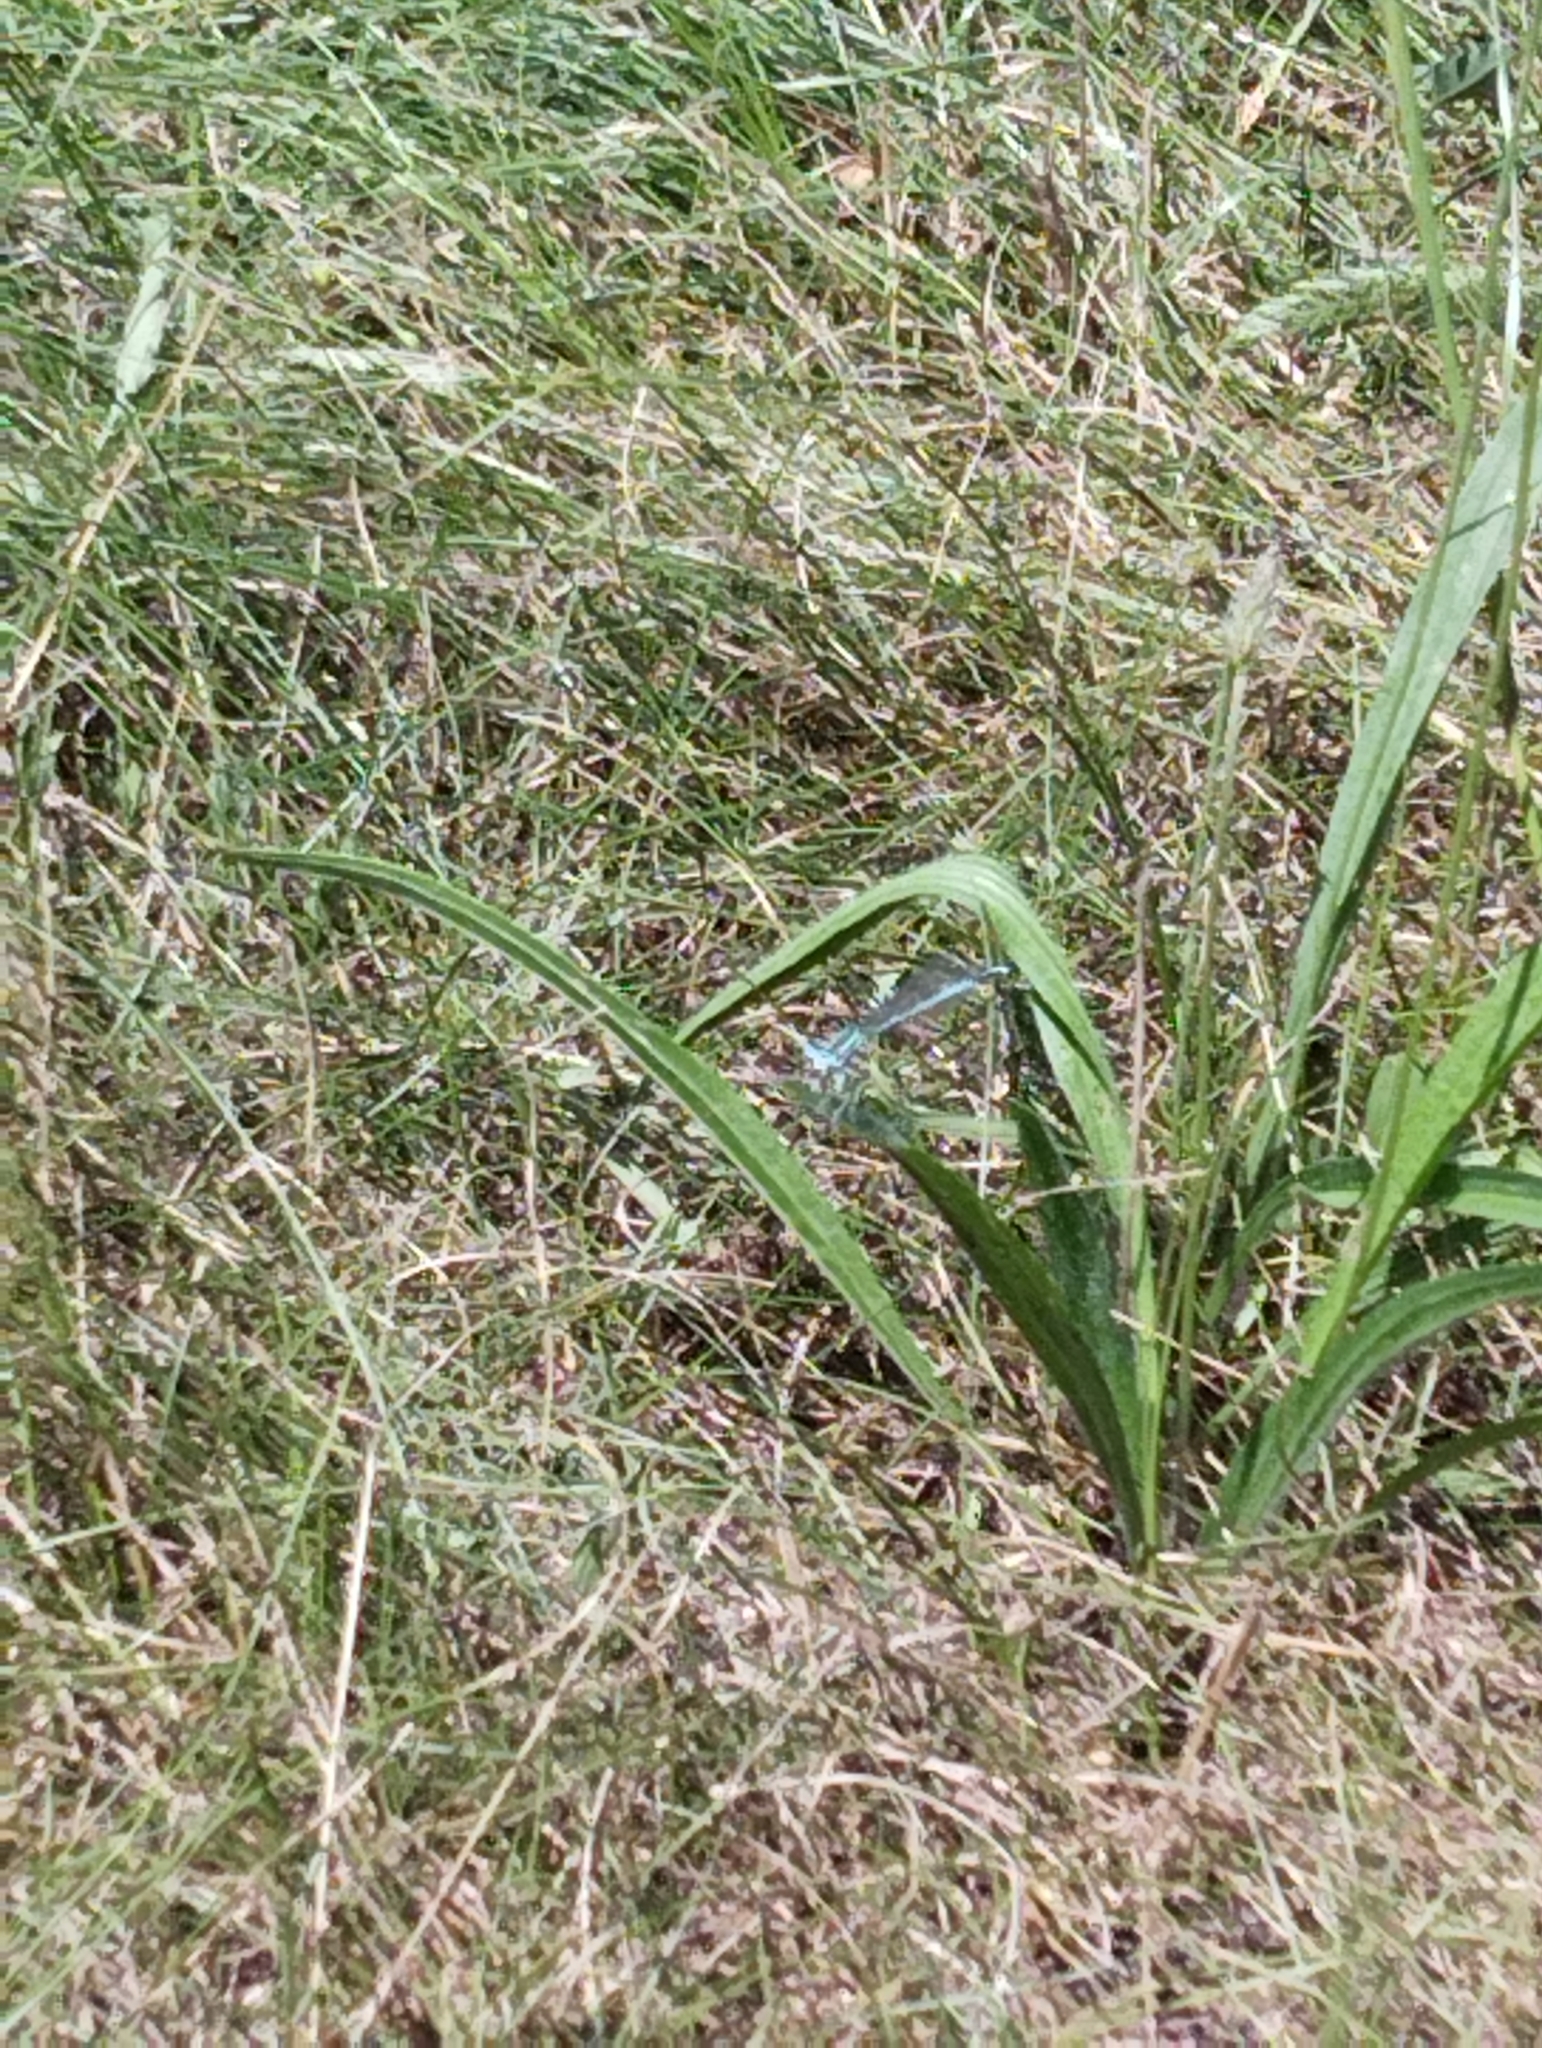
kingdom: Animalia
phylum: Arthropoda
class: Insecta
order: Odonata
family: Platycnemididae
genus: Platycnemis
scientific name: Platycnemis pennipes
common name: White-legged damselfly
